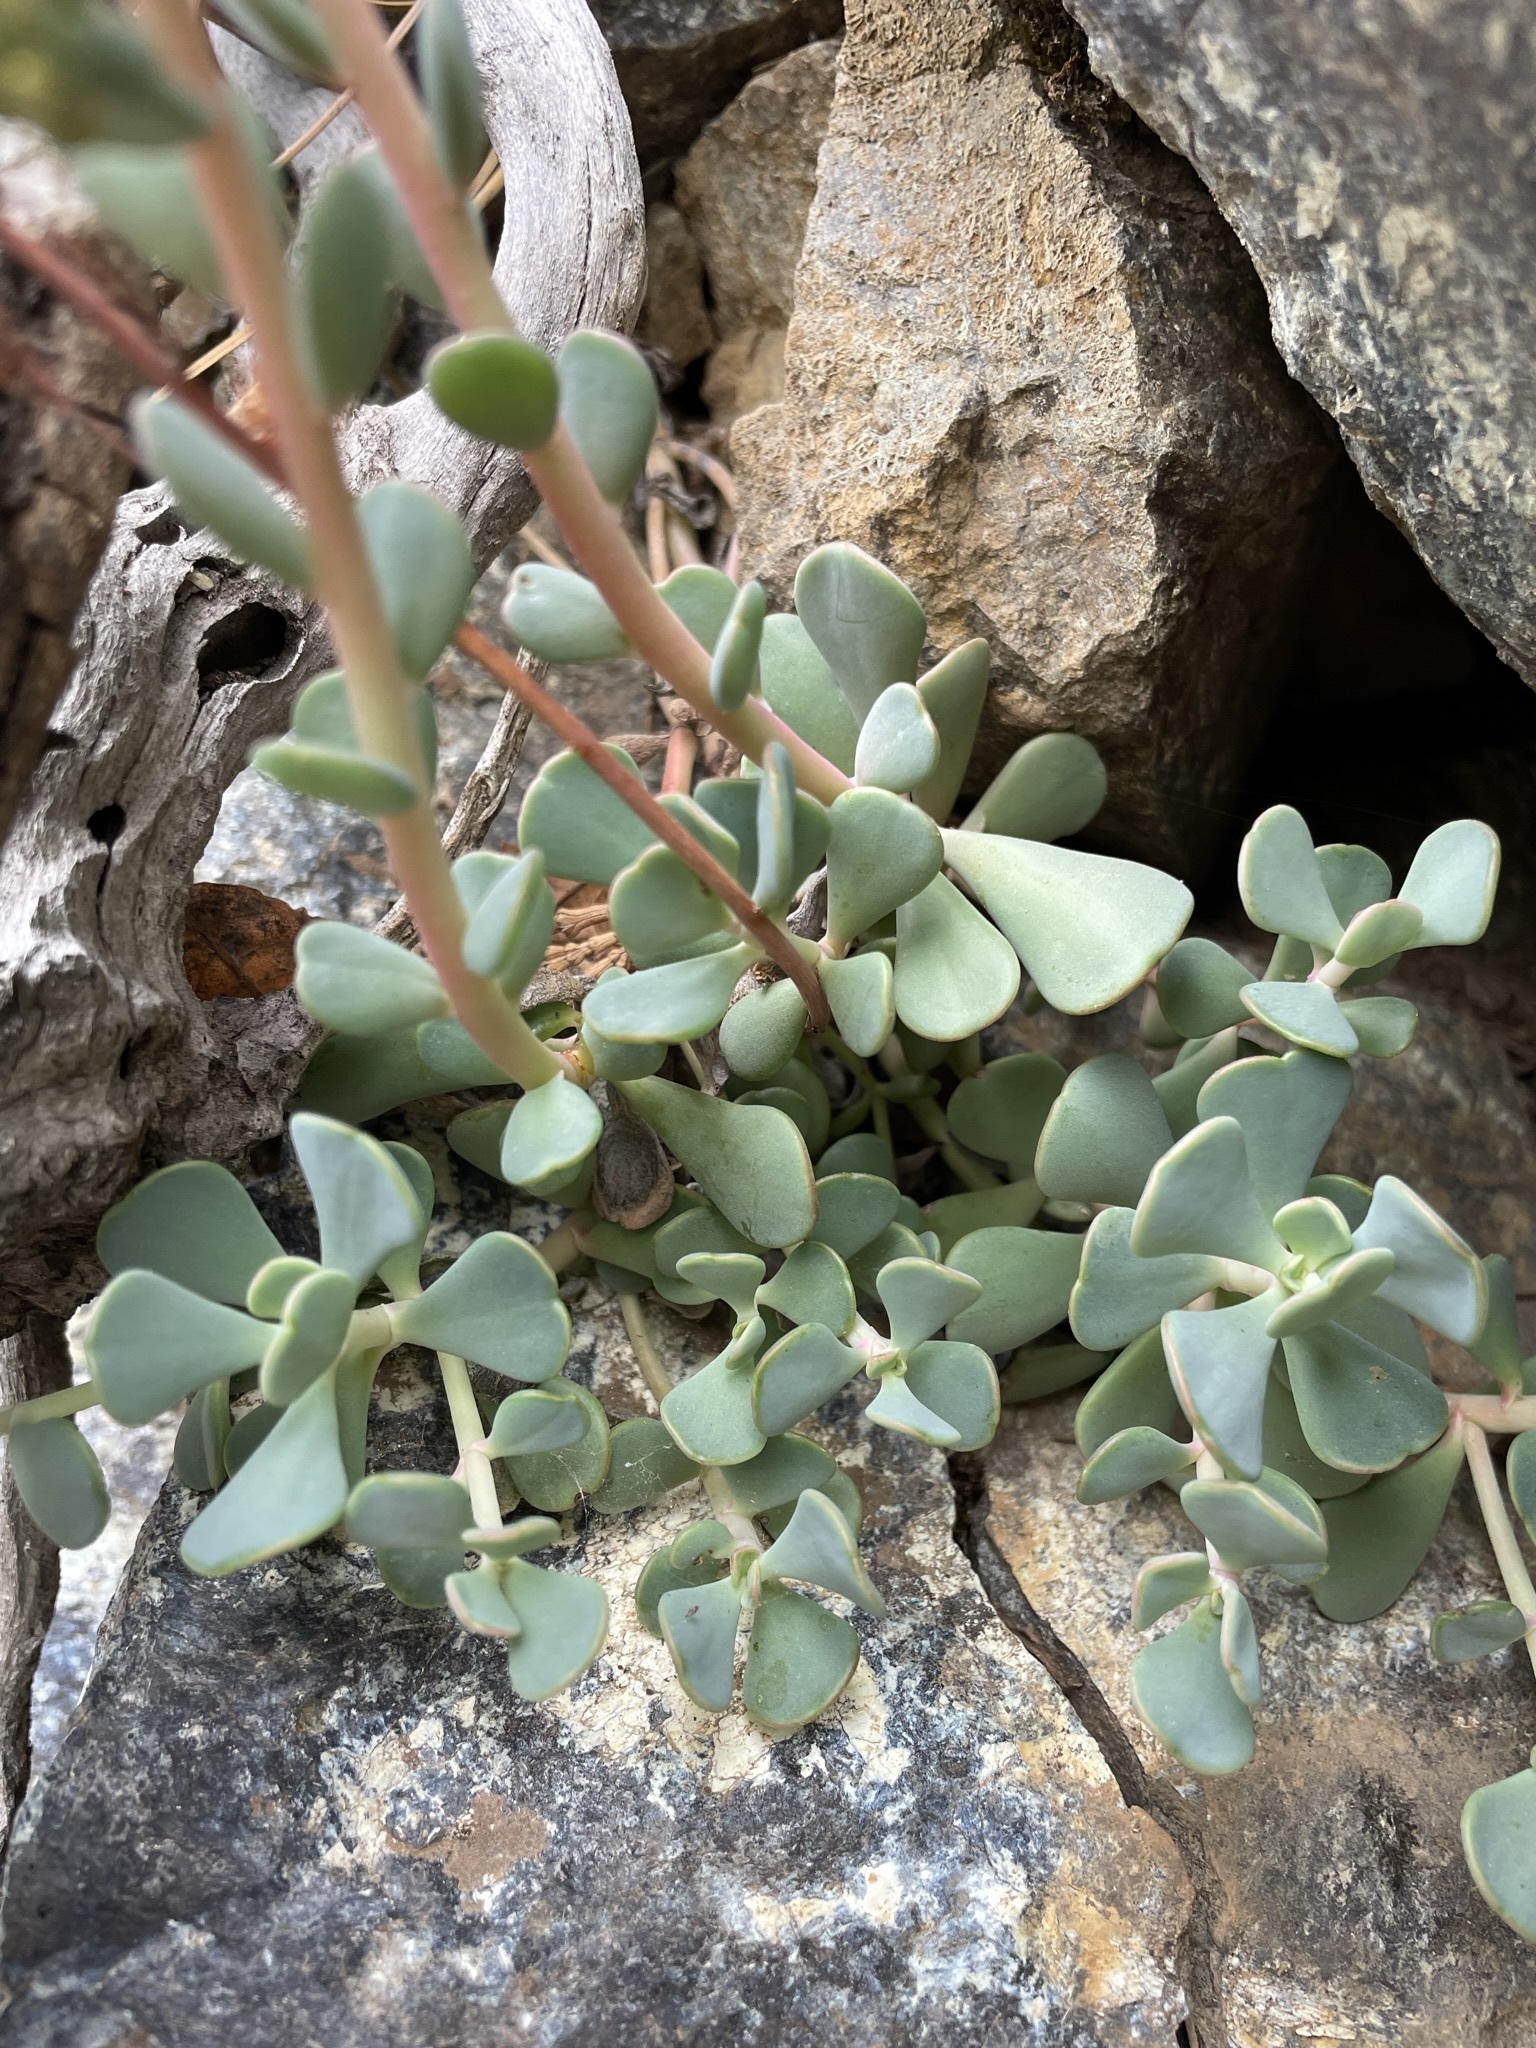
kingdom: Plantae
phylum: Tracheophyta
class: Magnoliopsida
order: Saxifragales
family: Crassulaceae
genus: Sedum
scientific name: Sedum obtusatum
